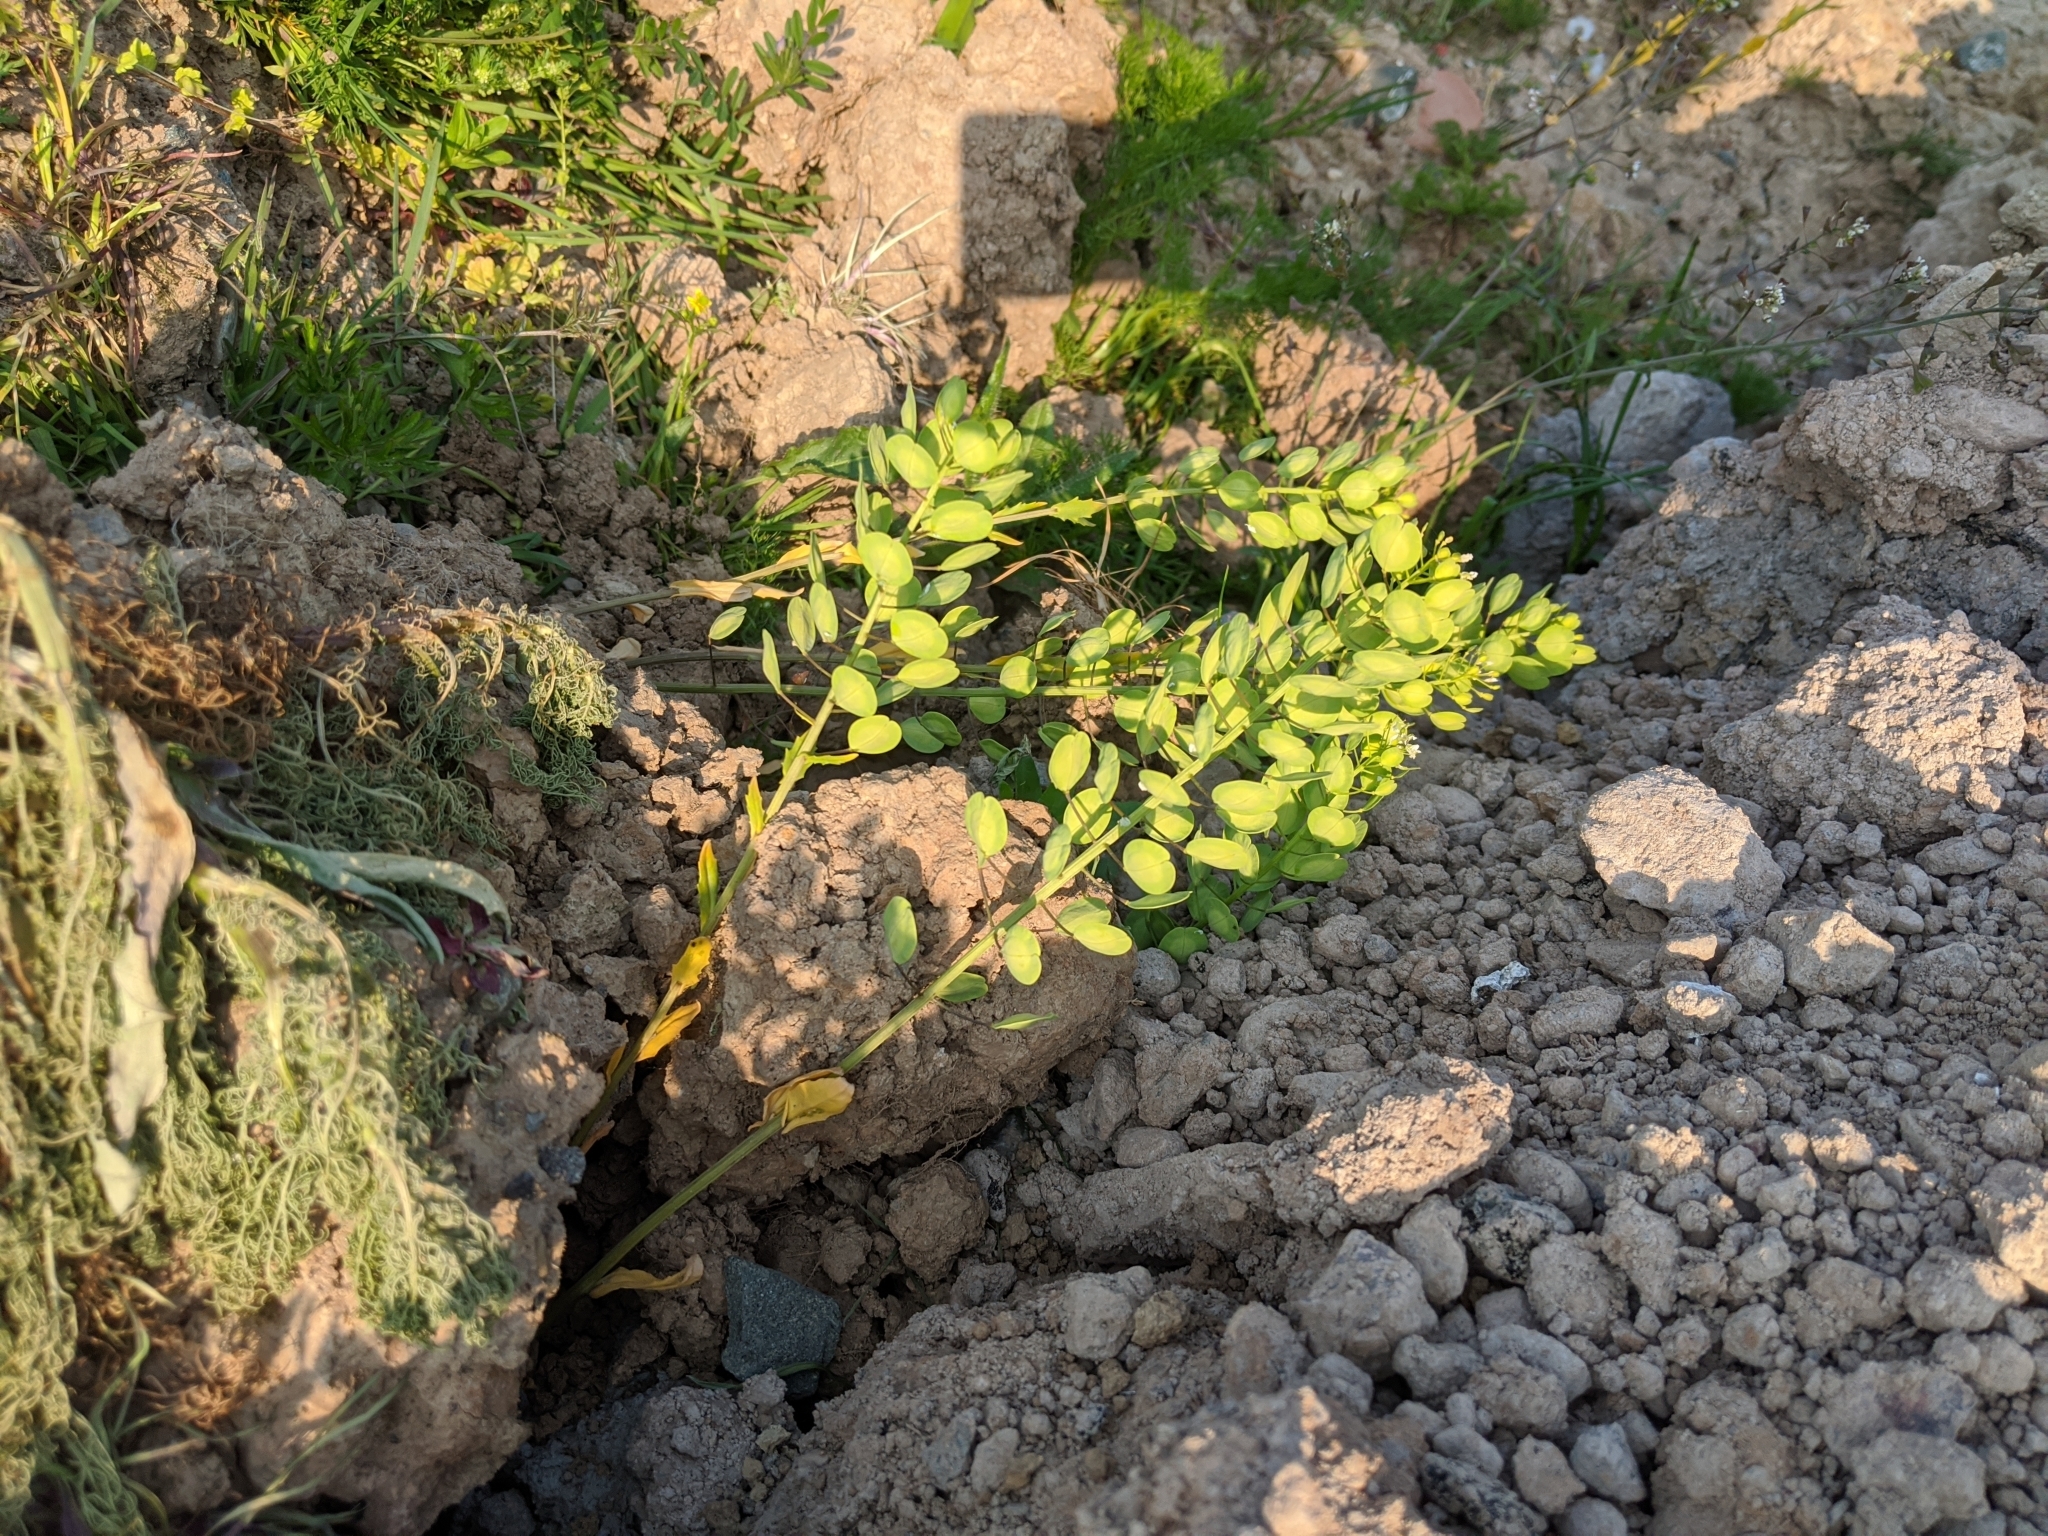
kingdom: Plantae
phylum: Tracheophyta
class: Magnoliopsida
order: Brassicales
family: Brassicaceae
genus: Thlaspi
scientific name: Thlaspi arvense
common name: Field pennycress
